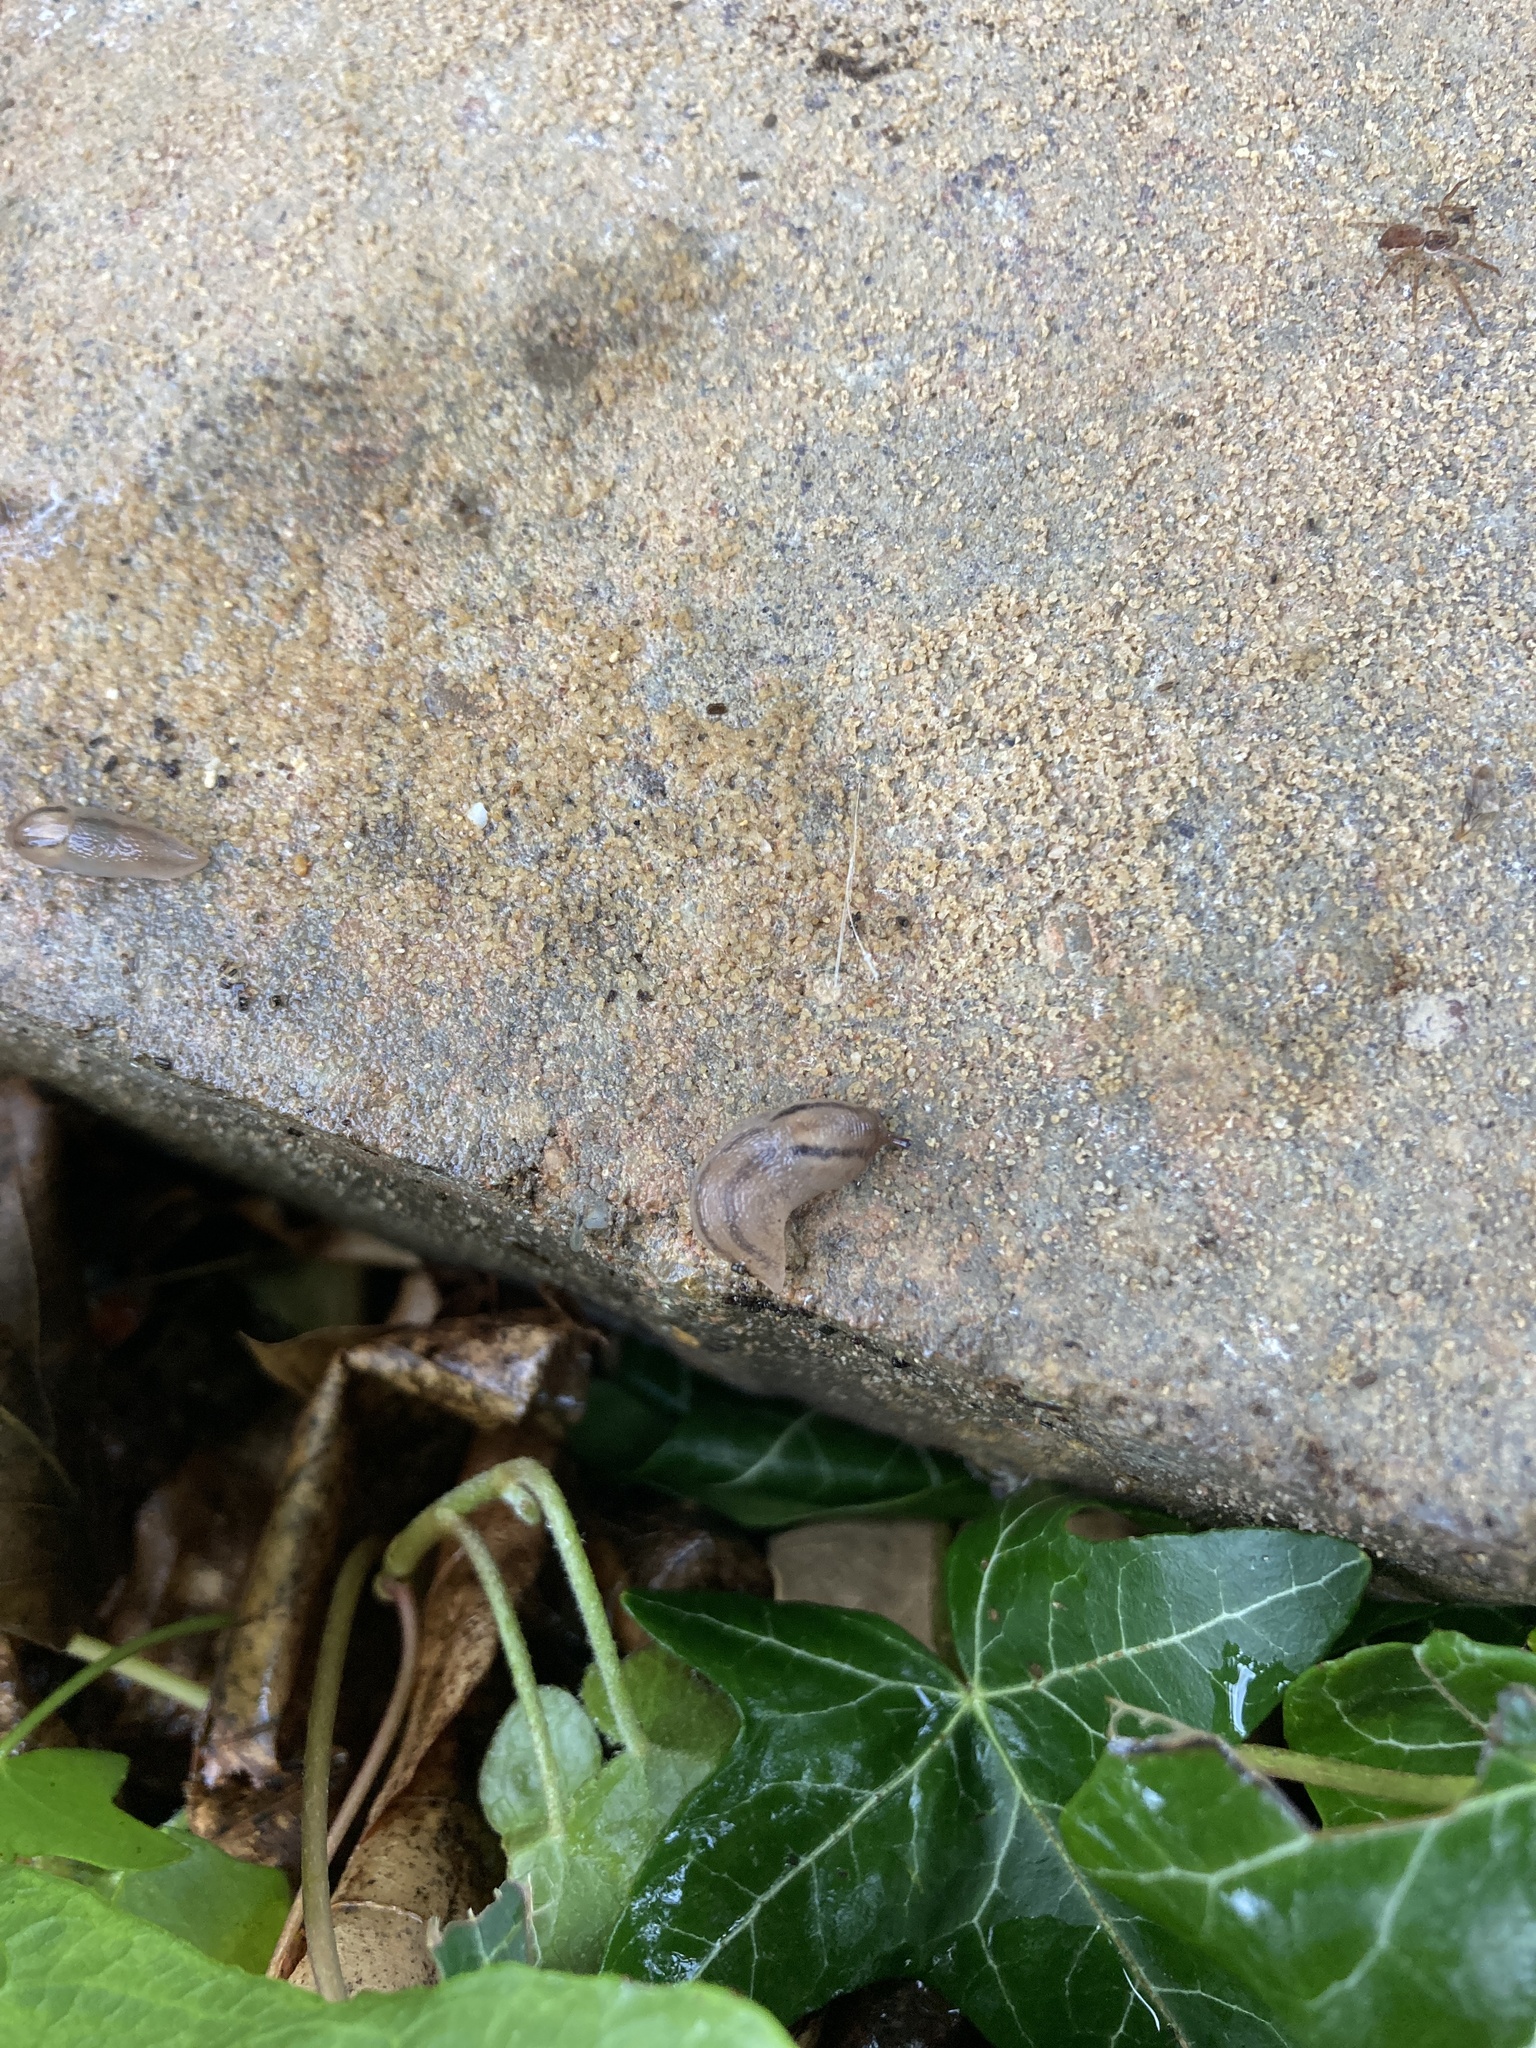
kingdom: Animalia
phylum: Mollusca
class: Gastropoda
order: Stylommatophora
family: Limacidae
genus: Ambigolimax
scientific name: Ambigolimax valentianus
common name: Greenhouse slug
